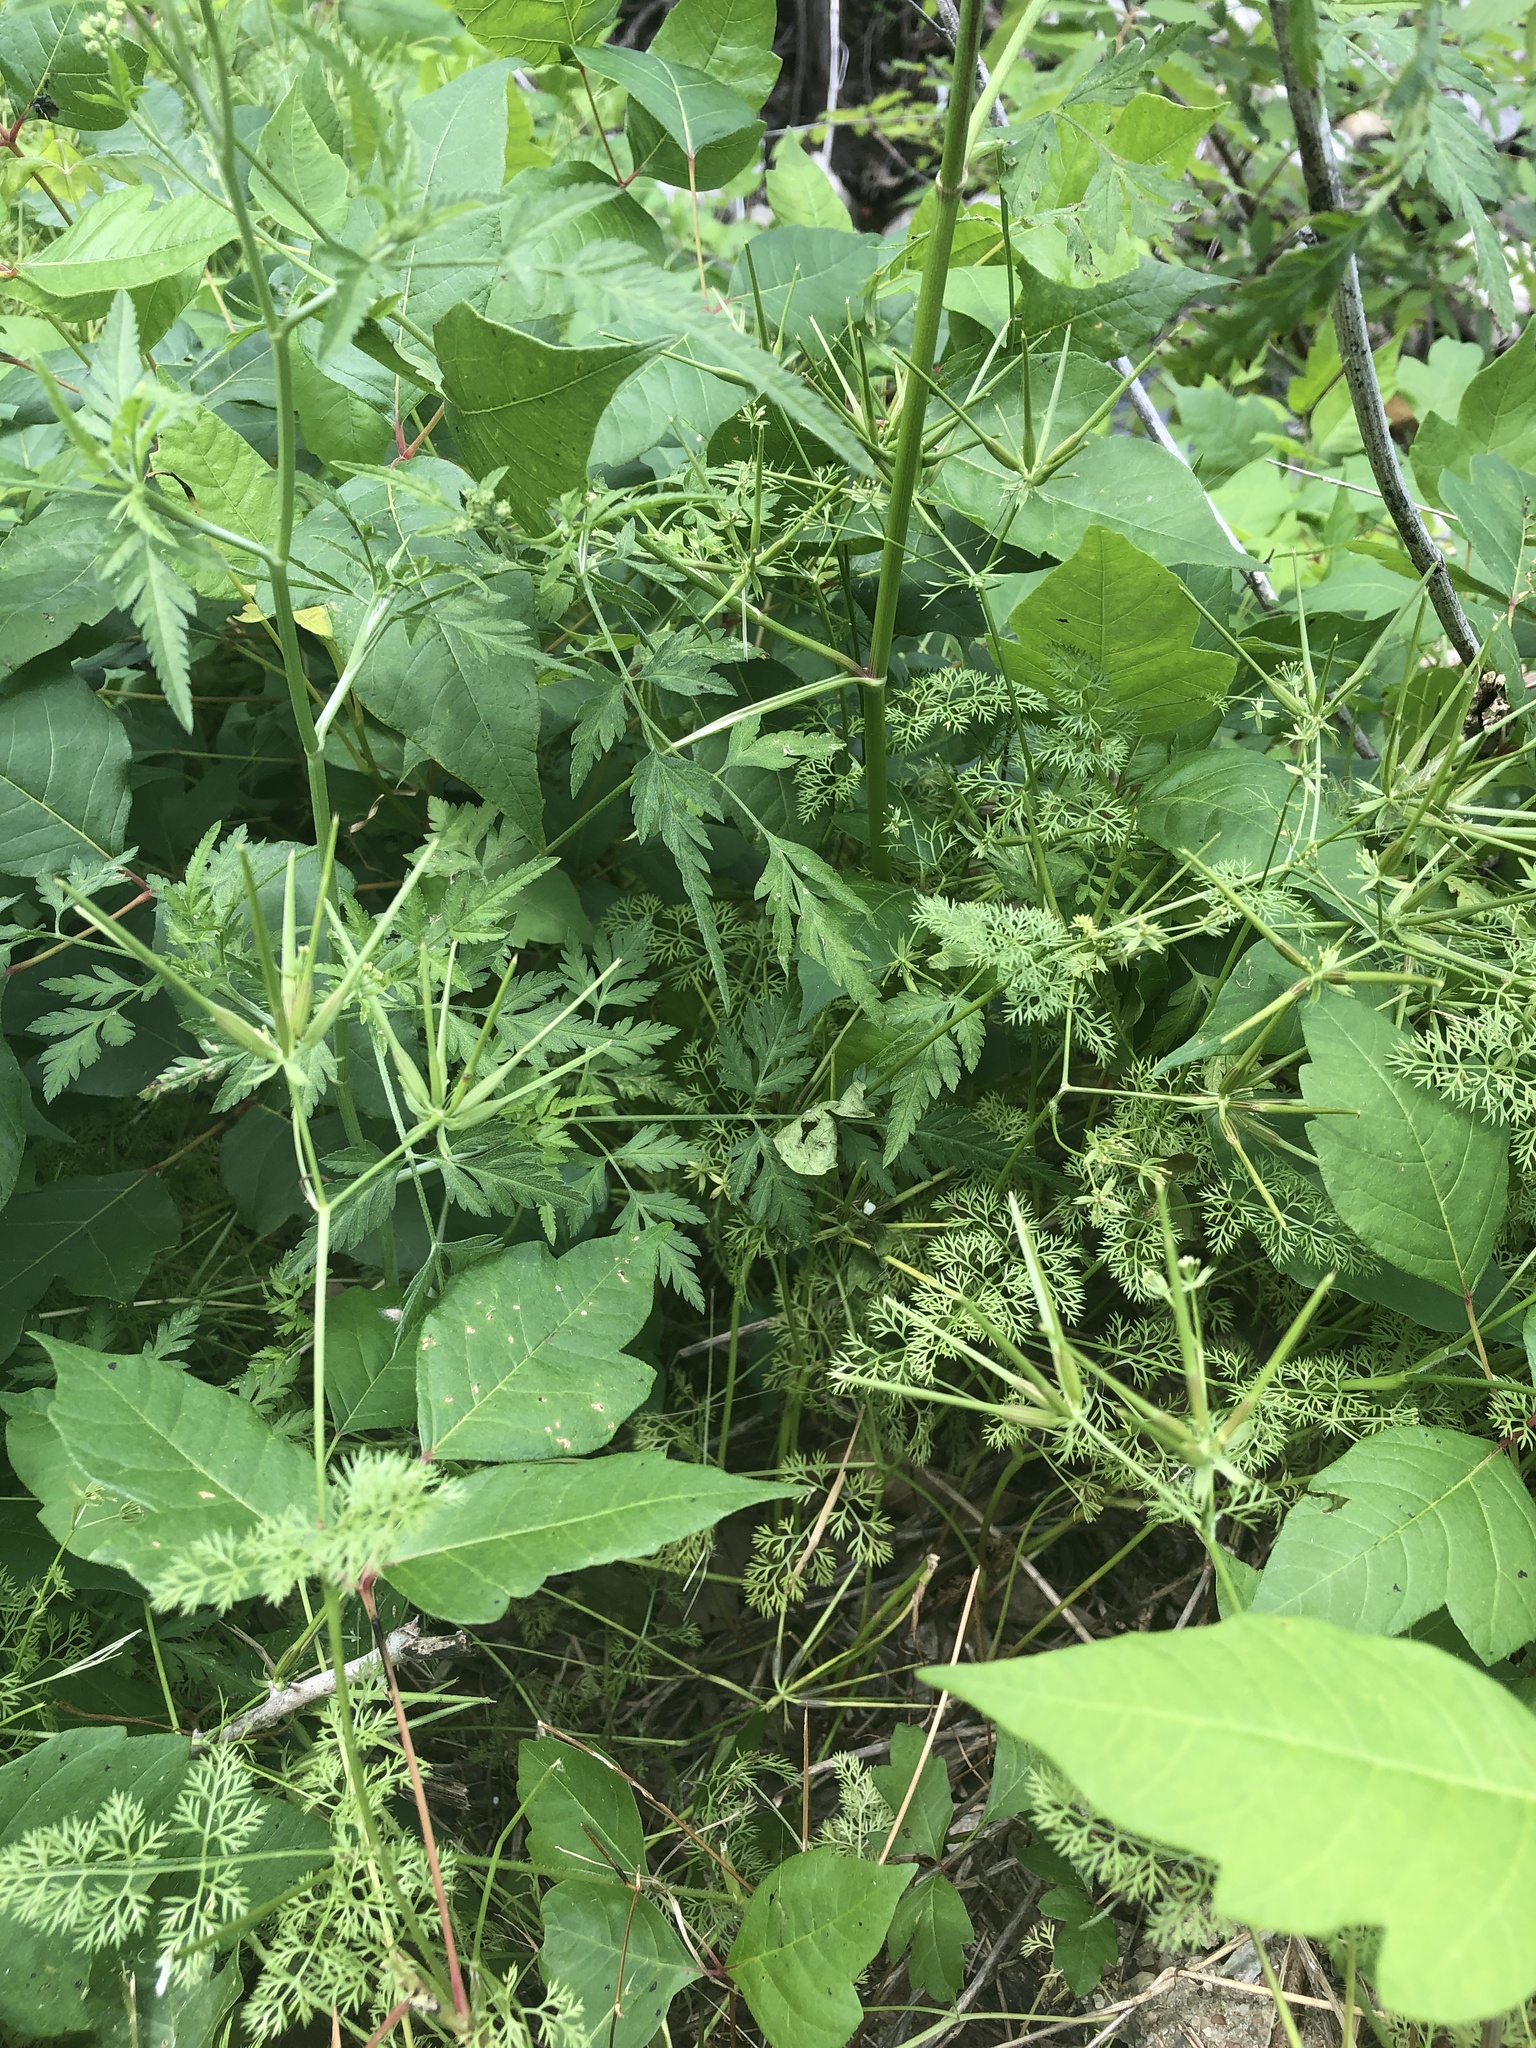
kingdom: Plantae
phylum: Tracheophyta
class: Magnoliopsida
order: Apiales
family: Apiaceae
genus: Scandix
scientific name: Scandix pecten-veneris
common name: Shepherd's-needle
